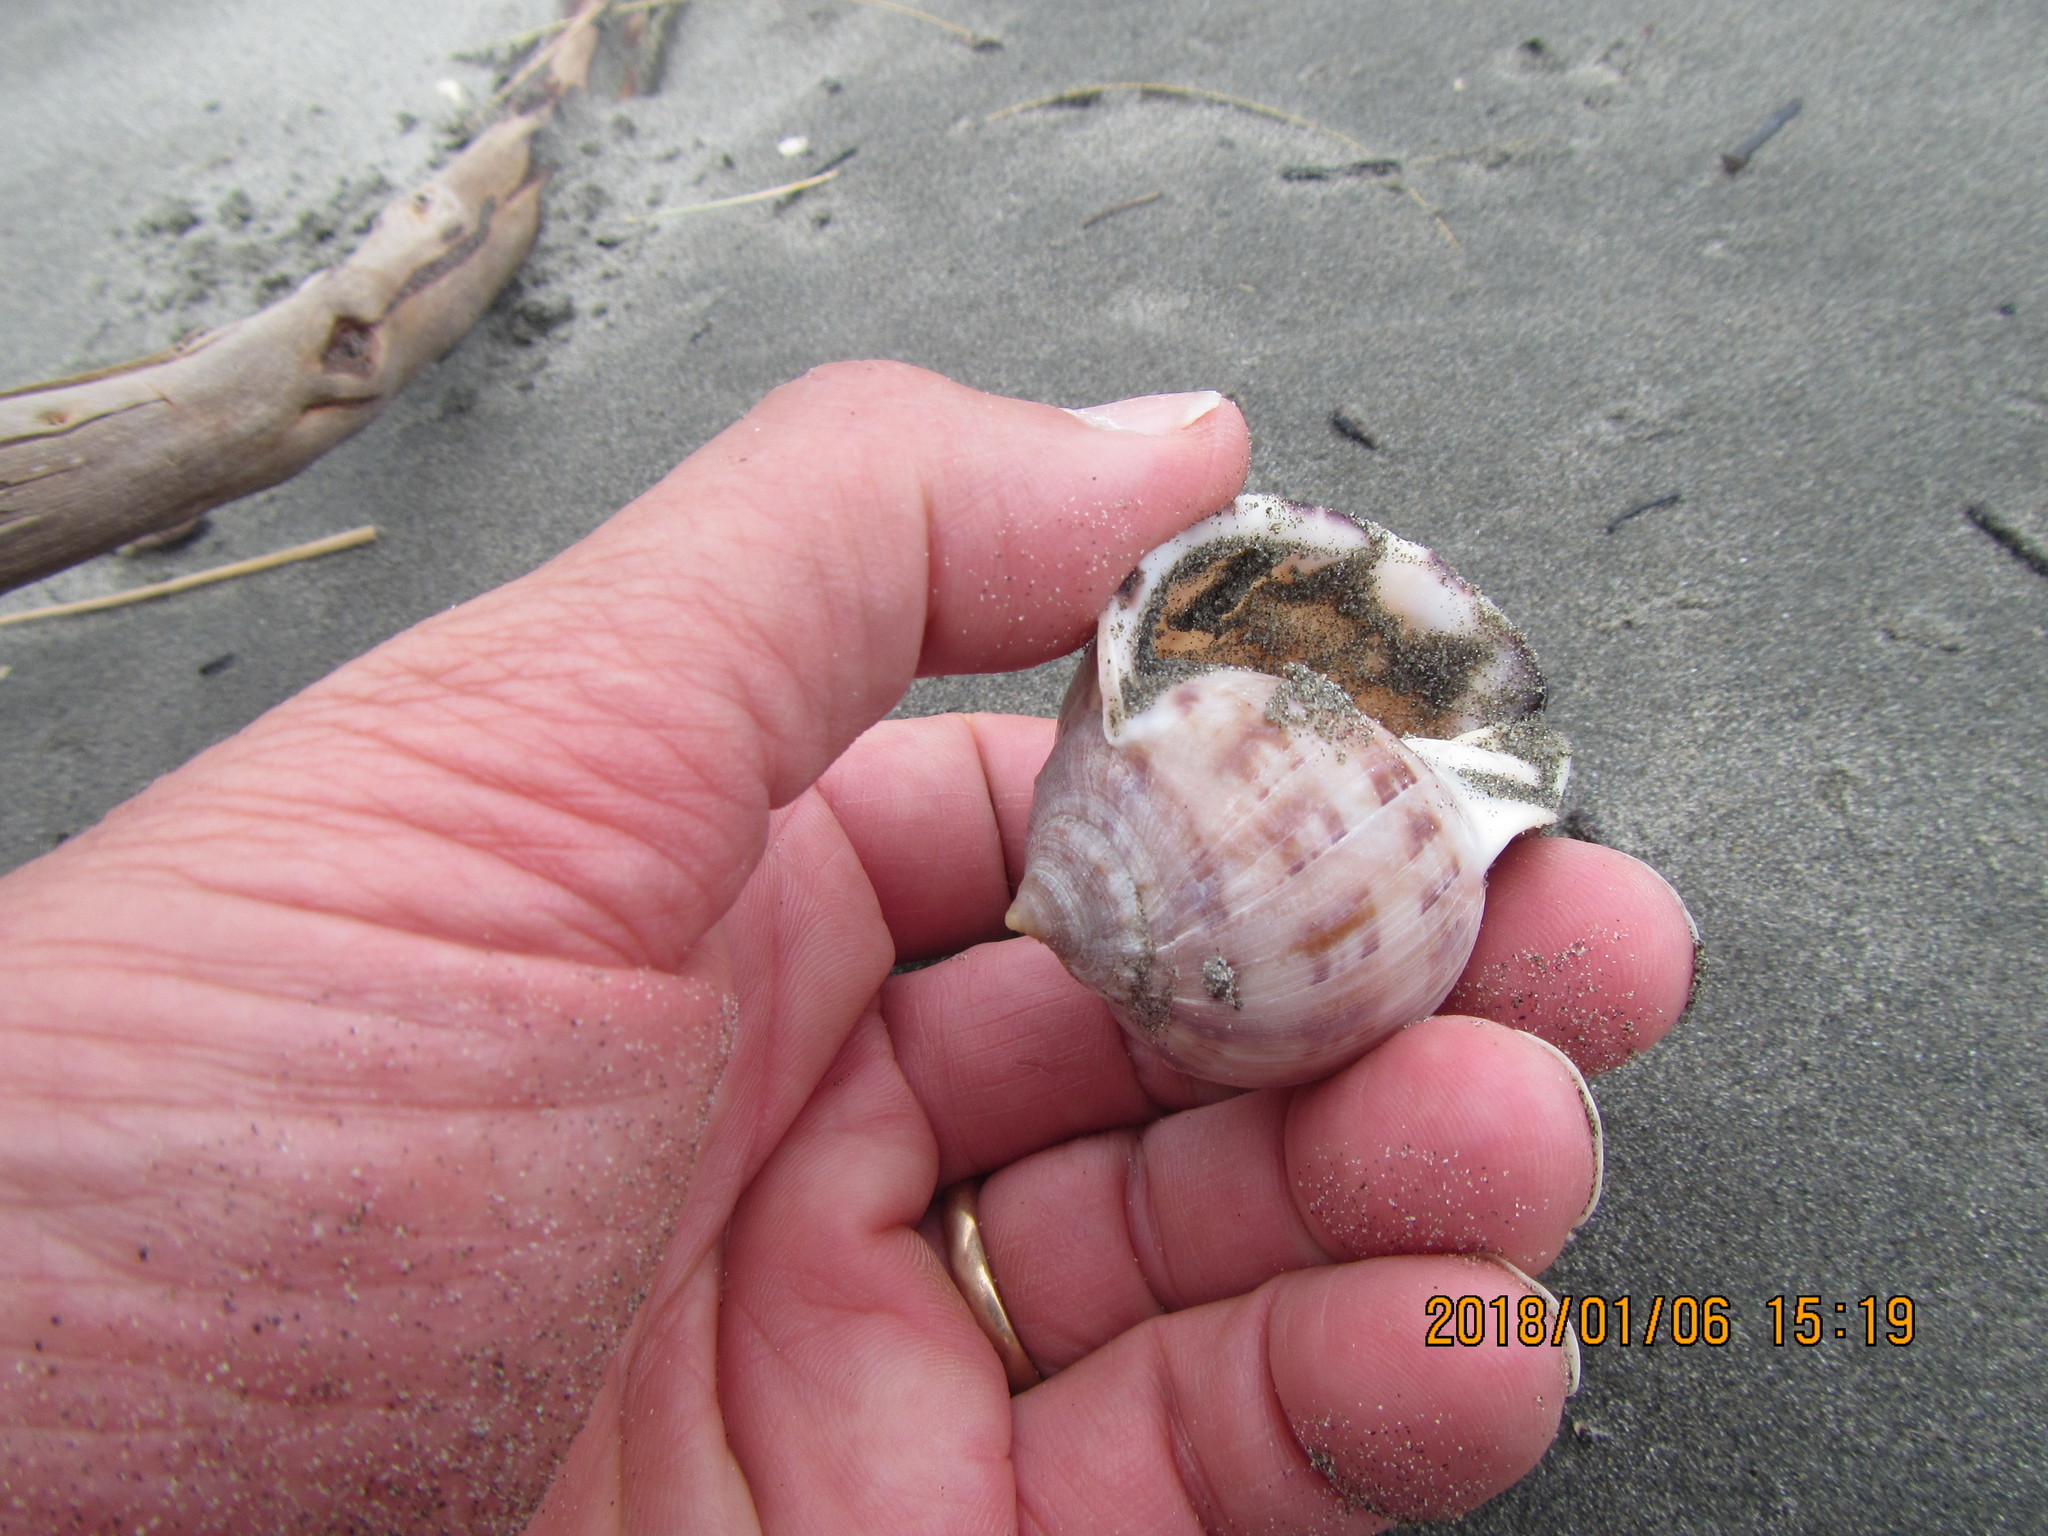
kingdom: Animalia
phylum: Mollusca
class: Gastropoda
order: Littorinimorpha
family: Cassidae
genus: Semicassis
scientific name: Semicassis pyrum
